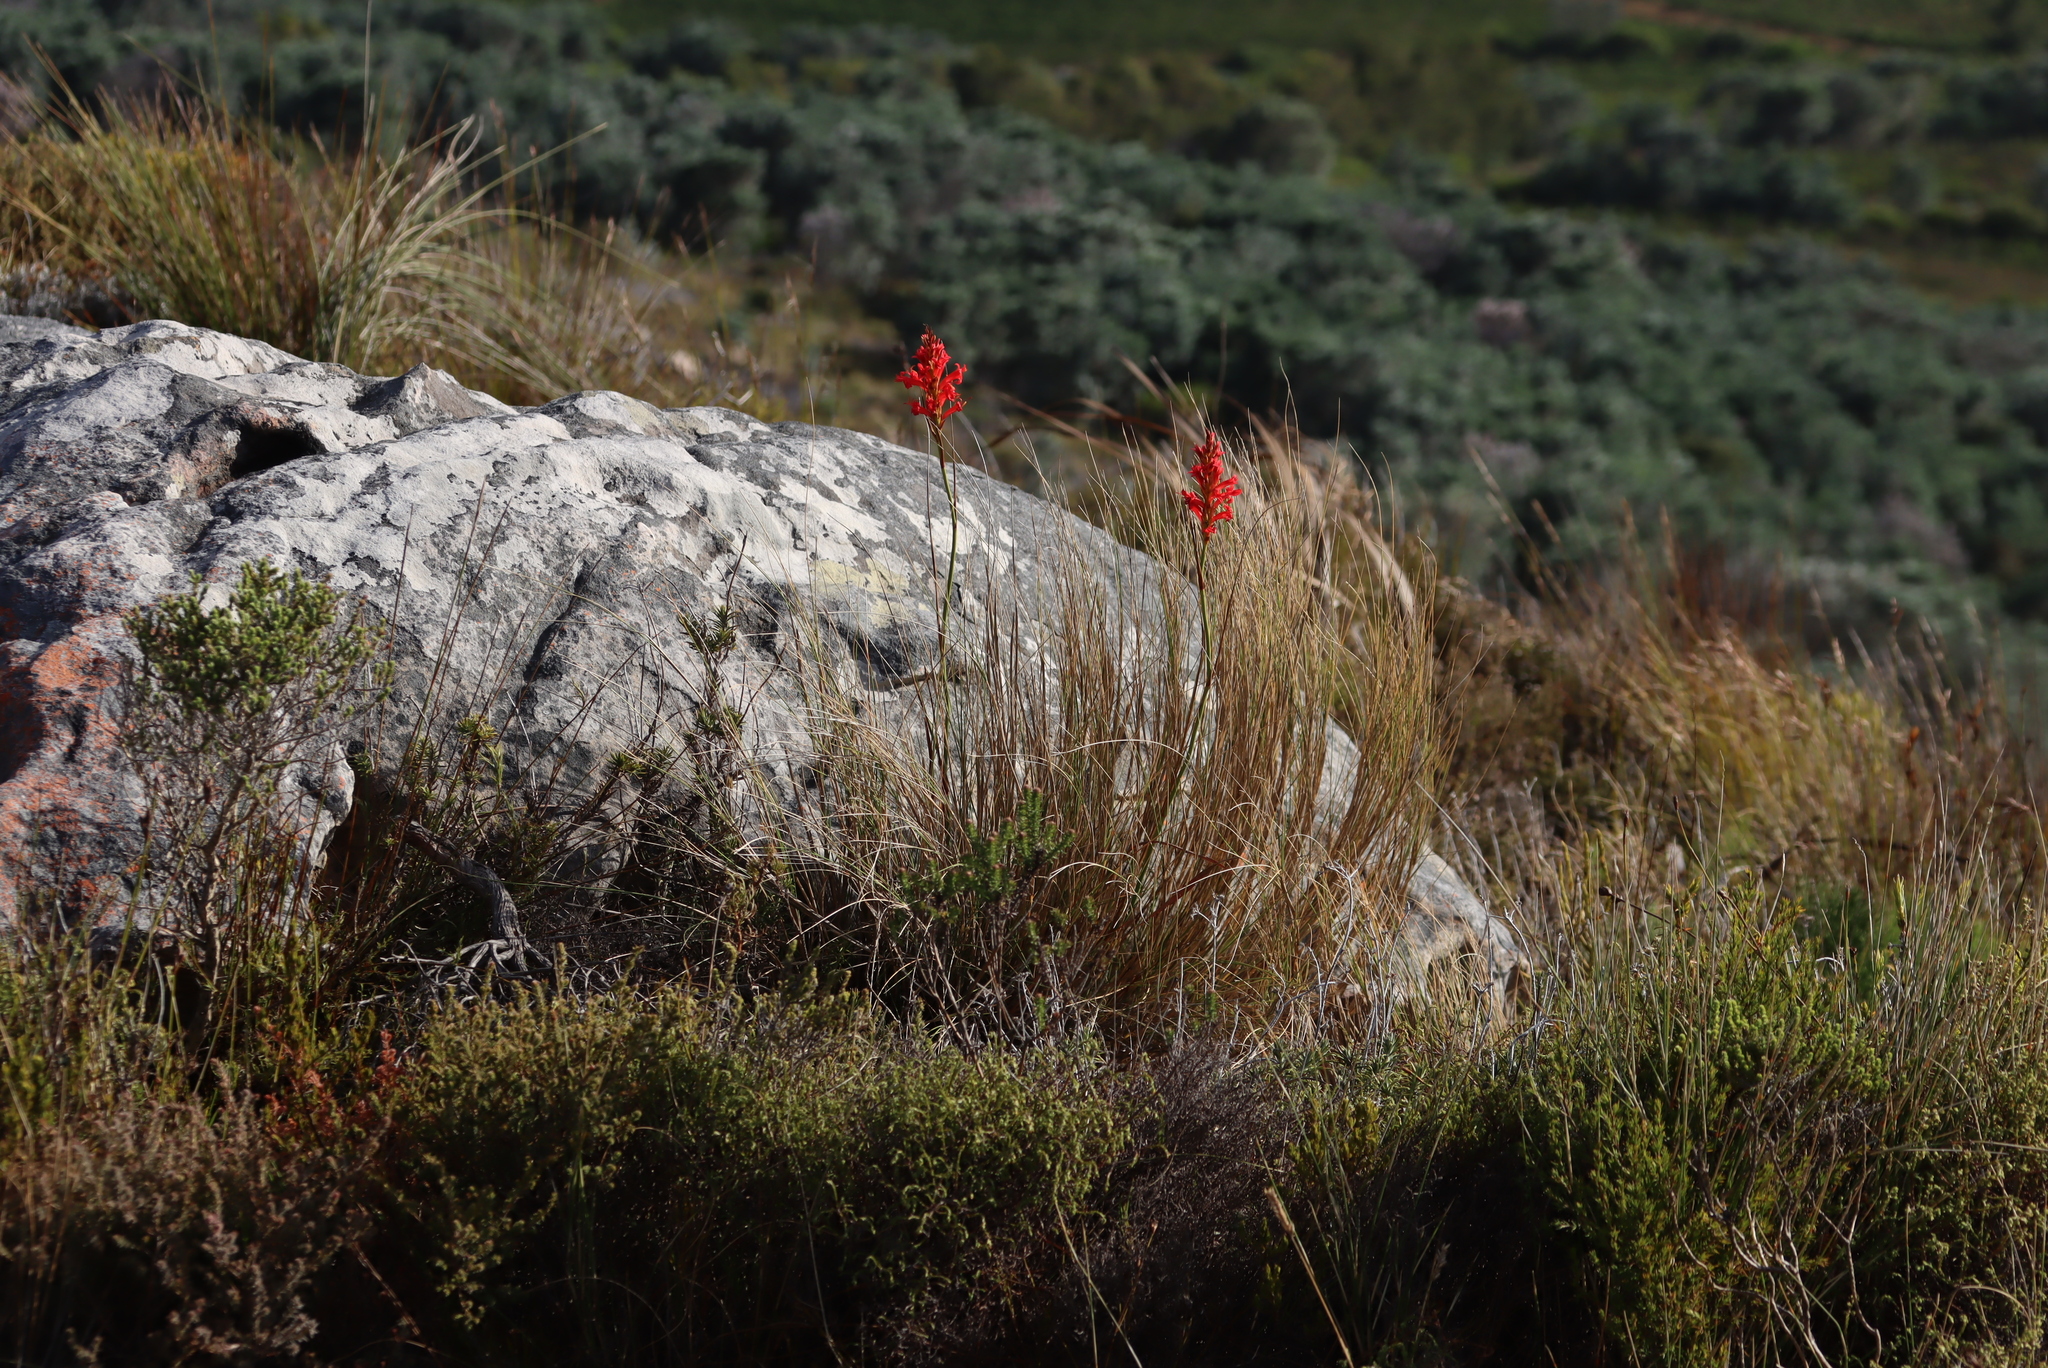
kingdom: Plantae
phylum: Tracheophyta
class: Liliopsida
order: Asparagales
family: Iridaceae
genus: Tritoniopsis
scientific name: Tritoniopsis triticea
